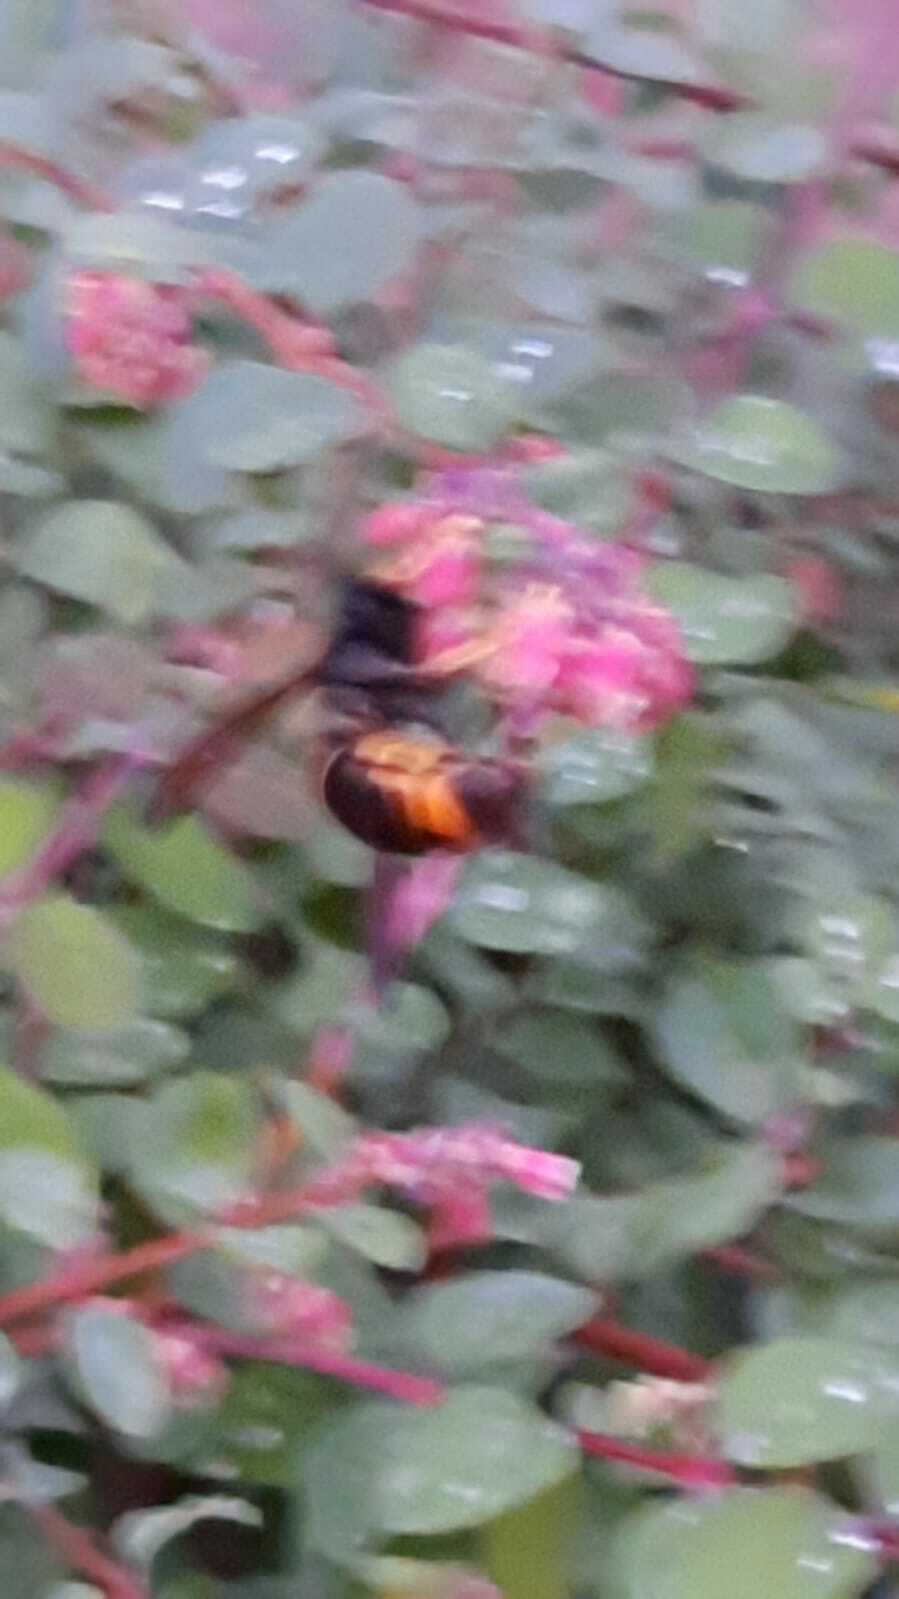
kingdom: Animalia
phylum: Arthropoda
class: Insecta
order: Hymenoptera
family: Vespidae
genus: Vespa
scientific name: Vespa velutina
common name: Asian hornet
